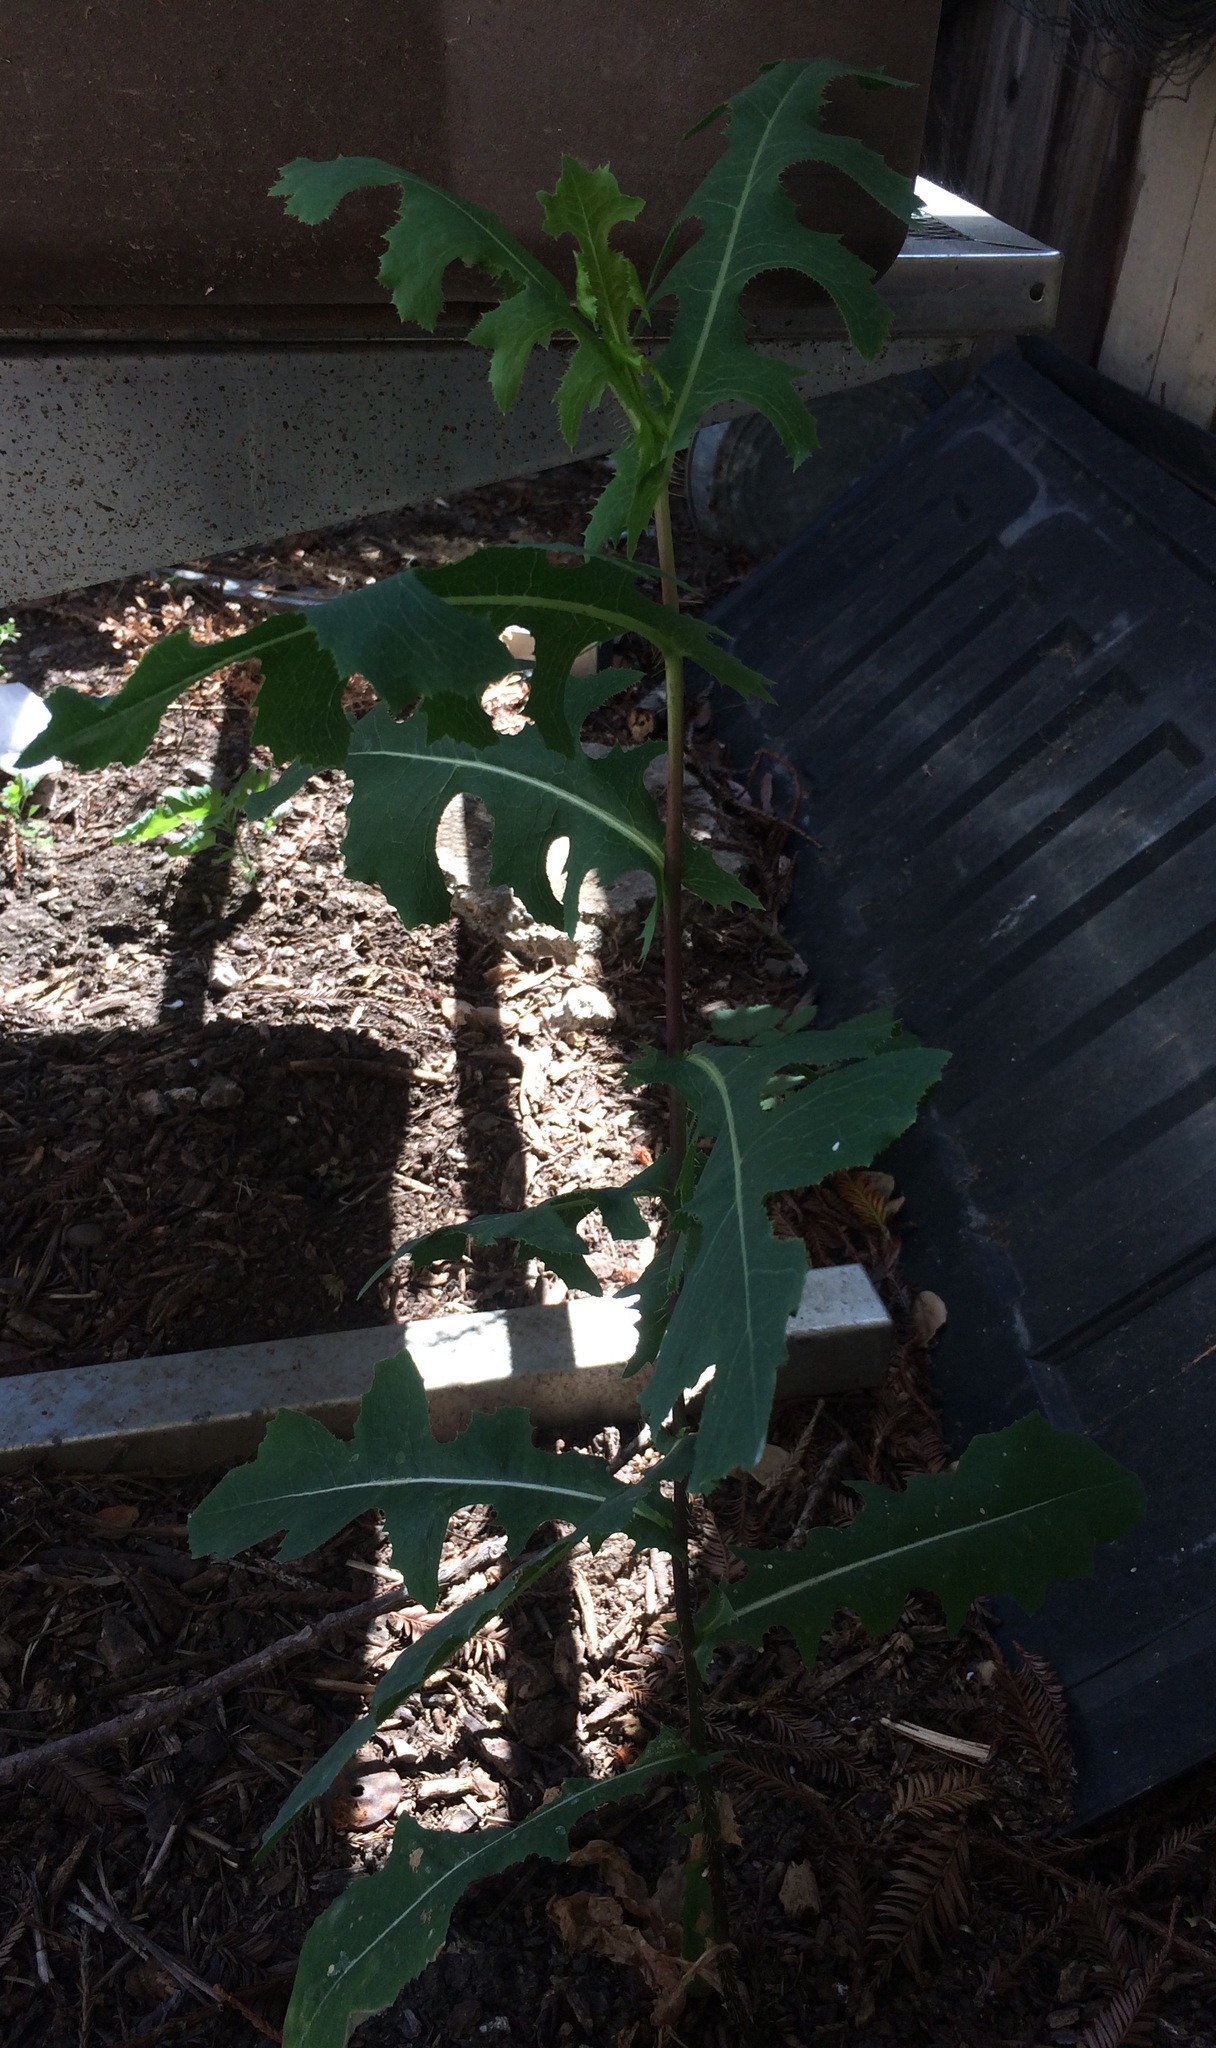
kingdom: Plantae
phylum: Tracheophyta
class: Magnoliopsida
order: Asterales
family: Asteraceae
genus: Lactuca
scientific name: Lactuca serriola
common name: Prickly lettuce
